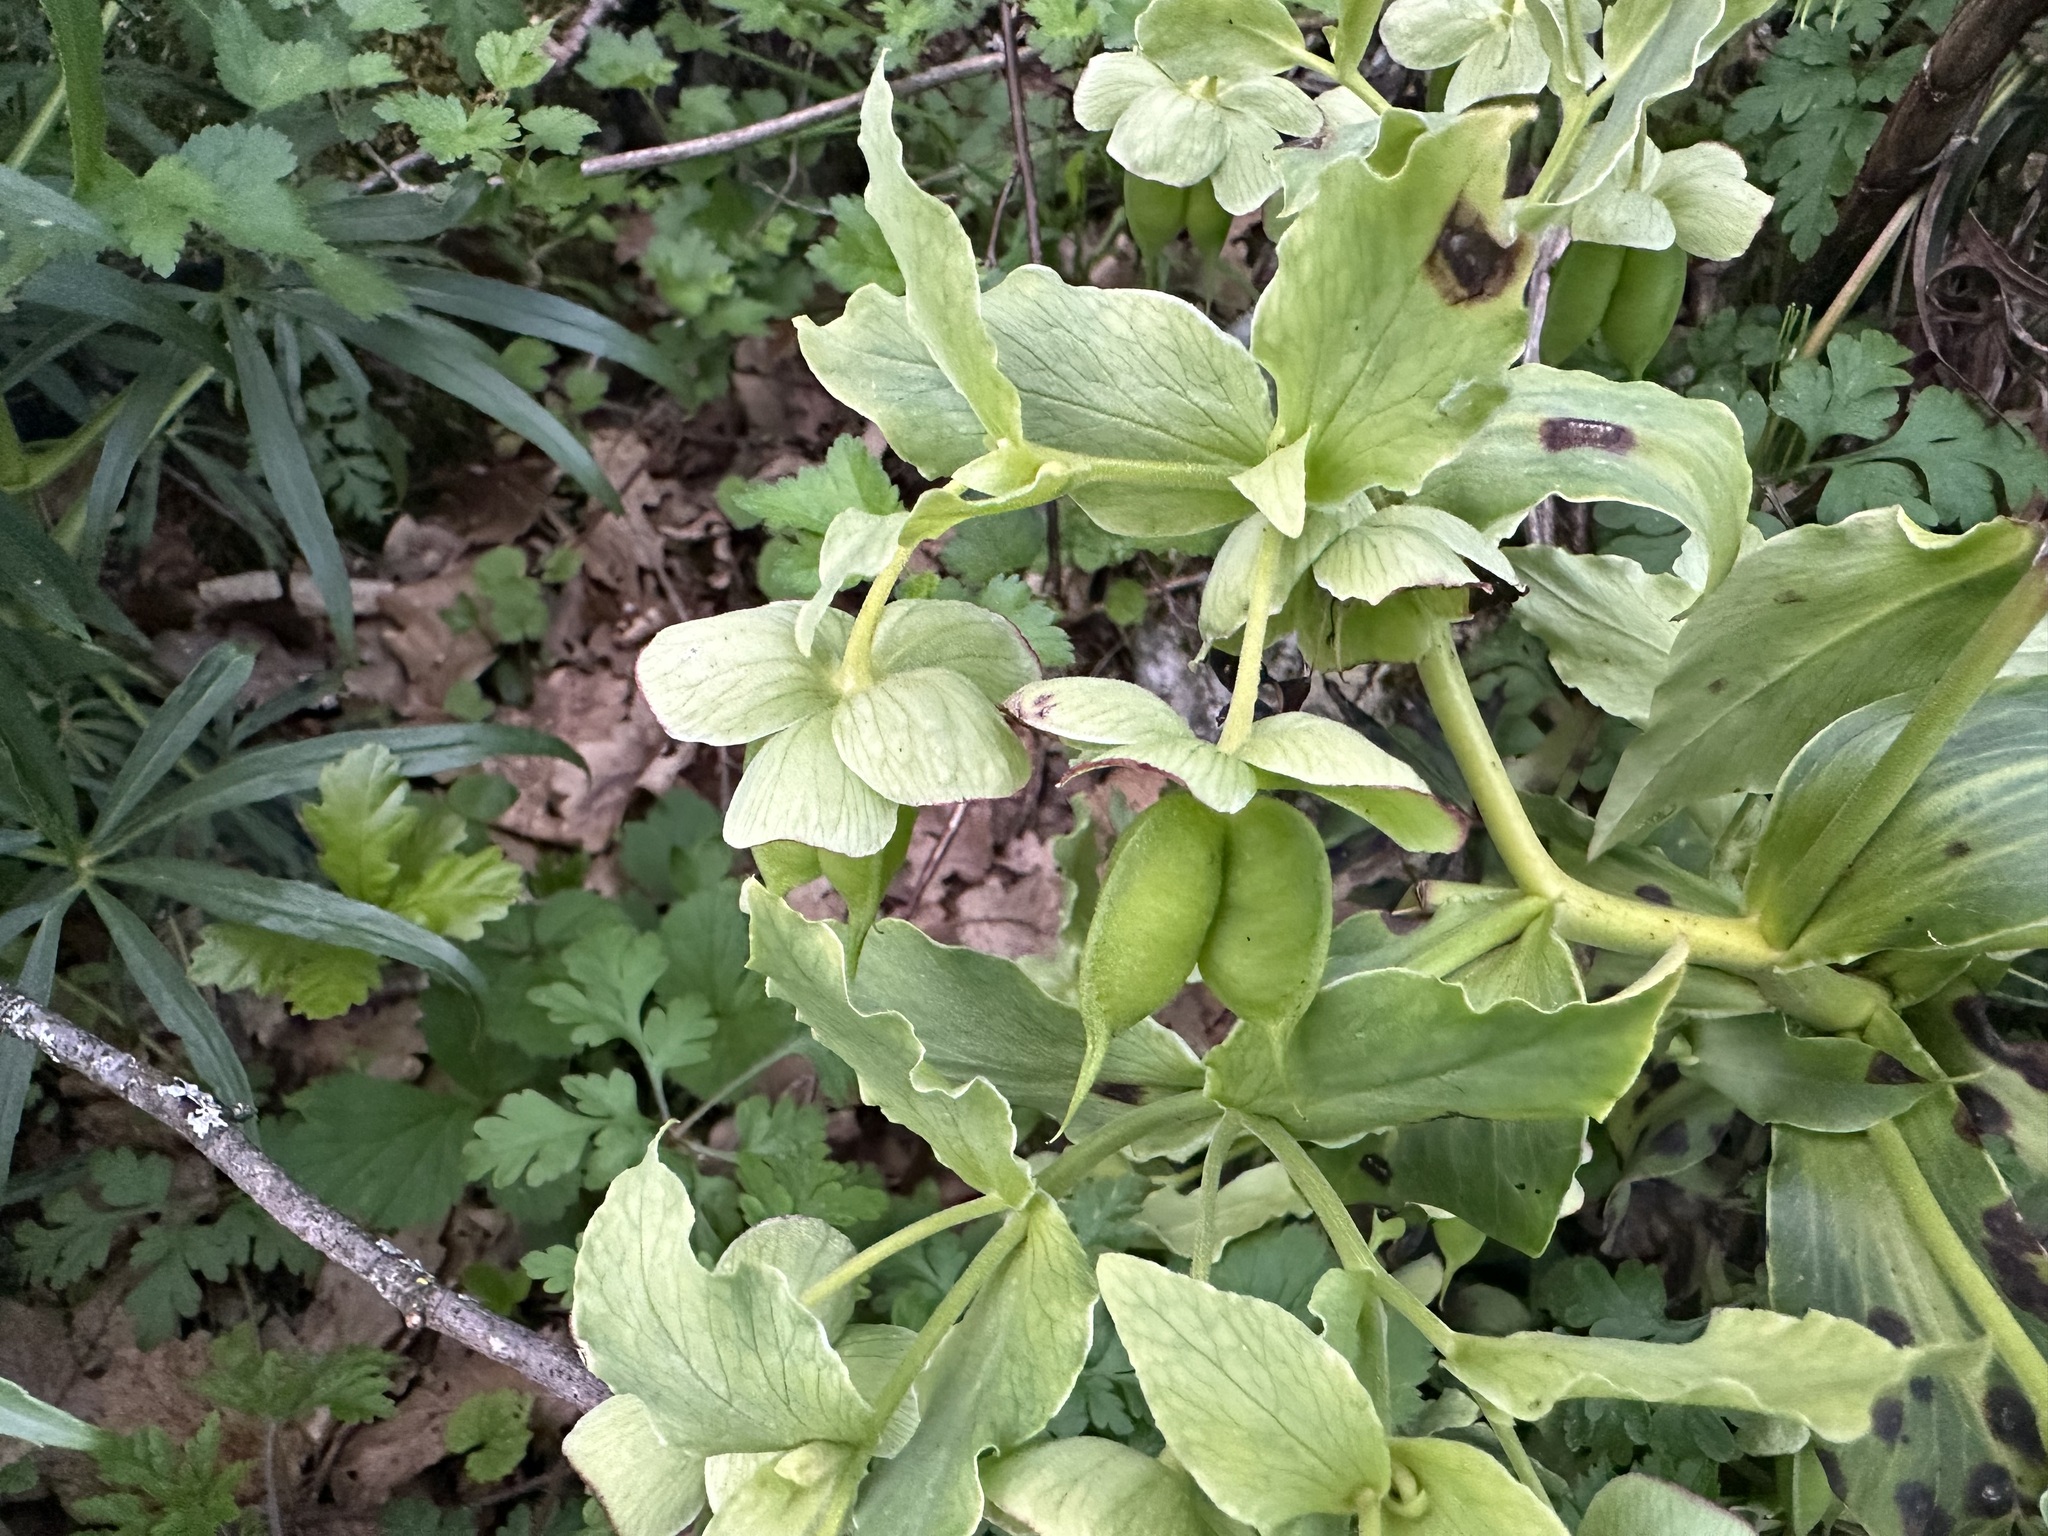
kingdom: Plantae
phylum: Tracheophyta
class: Magnoliopsida
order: Ranunculales
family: Ranunculaceae
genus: Helleborus
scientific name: Helleborus foetidus
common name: Stinking hellebore
